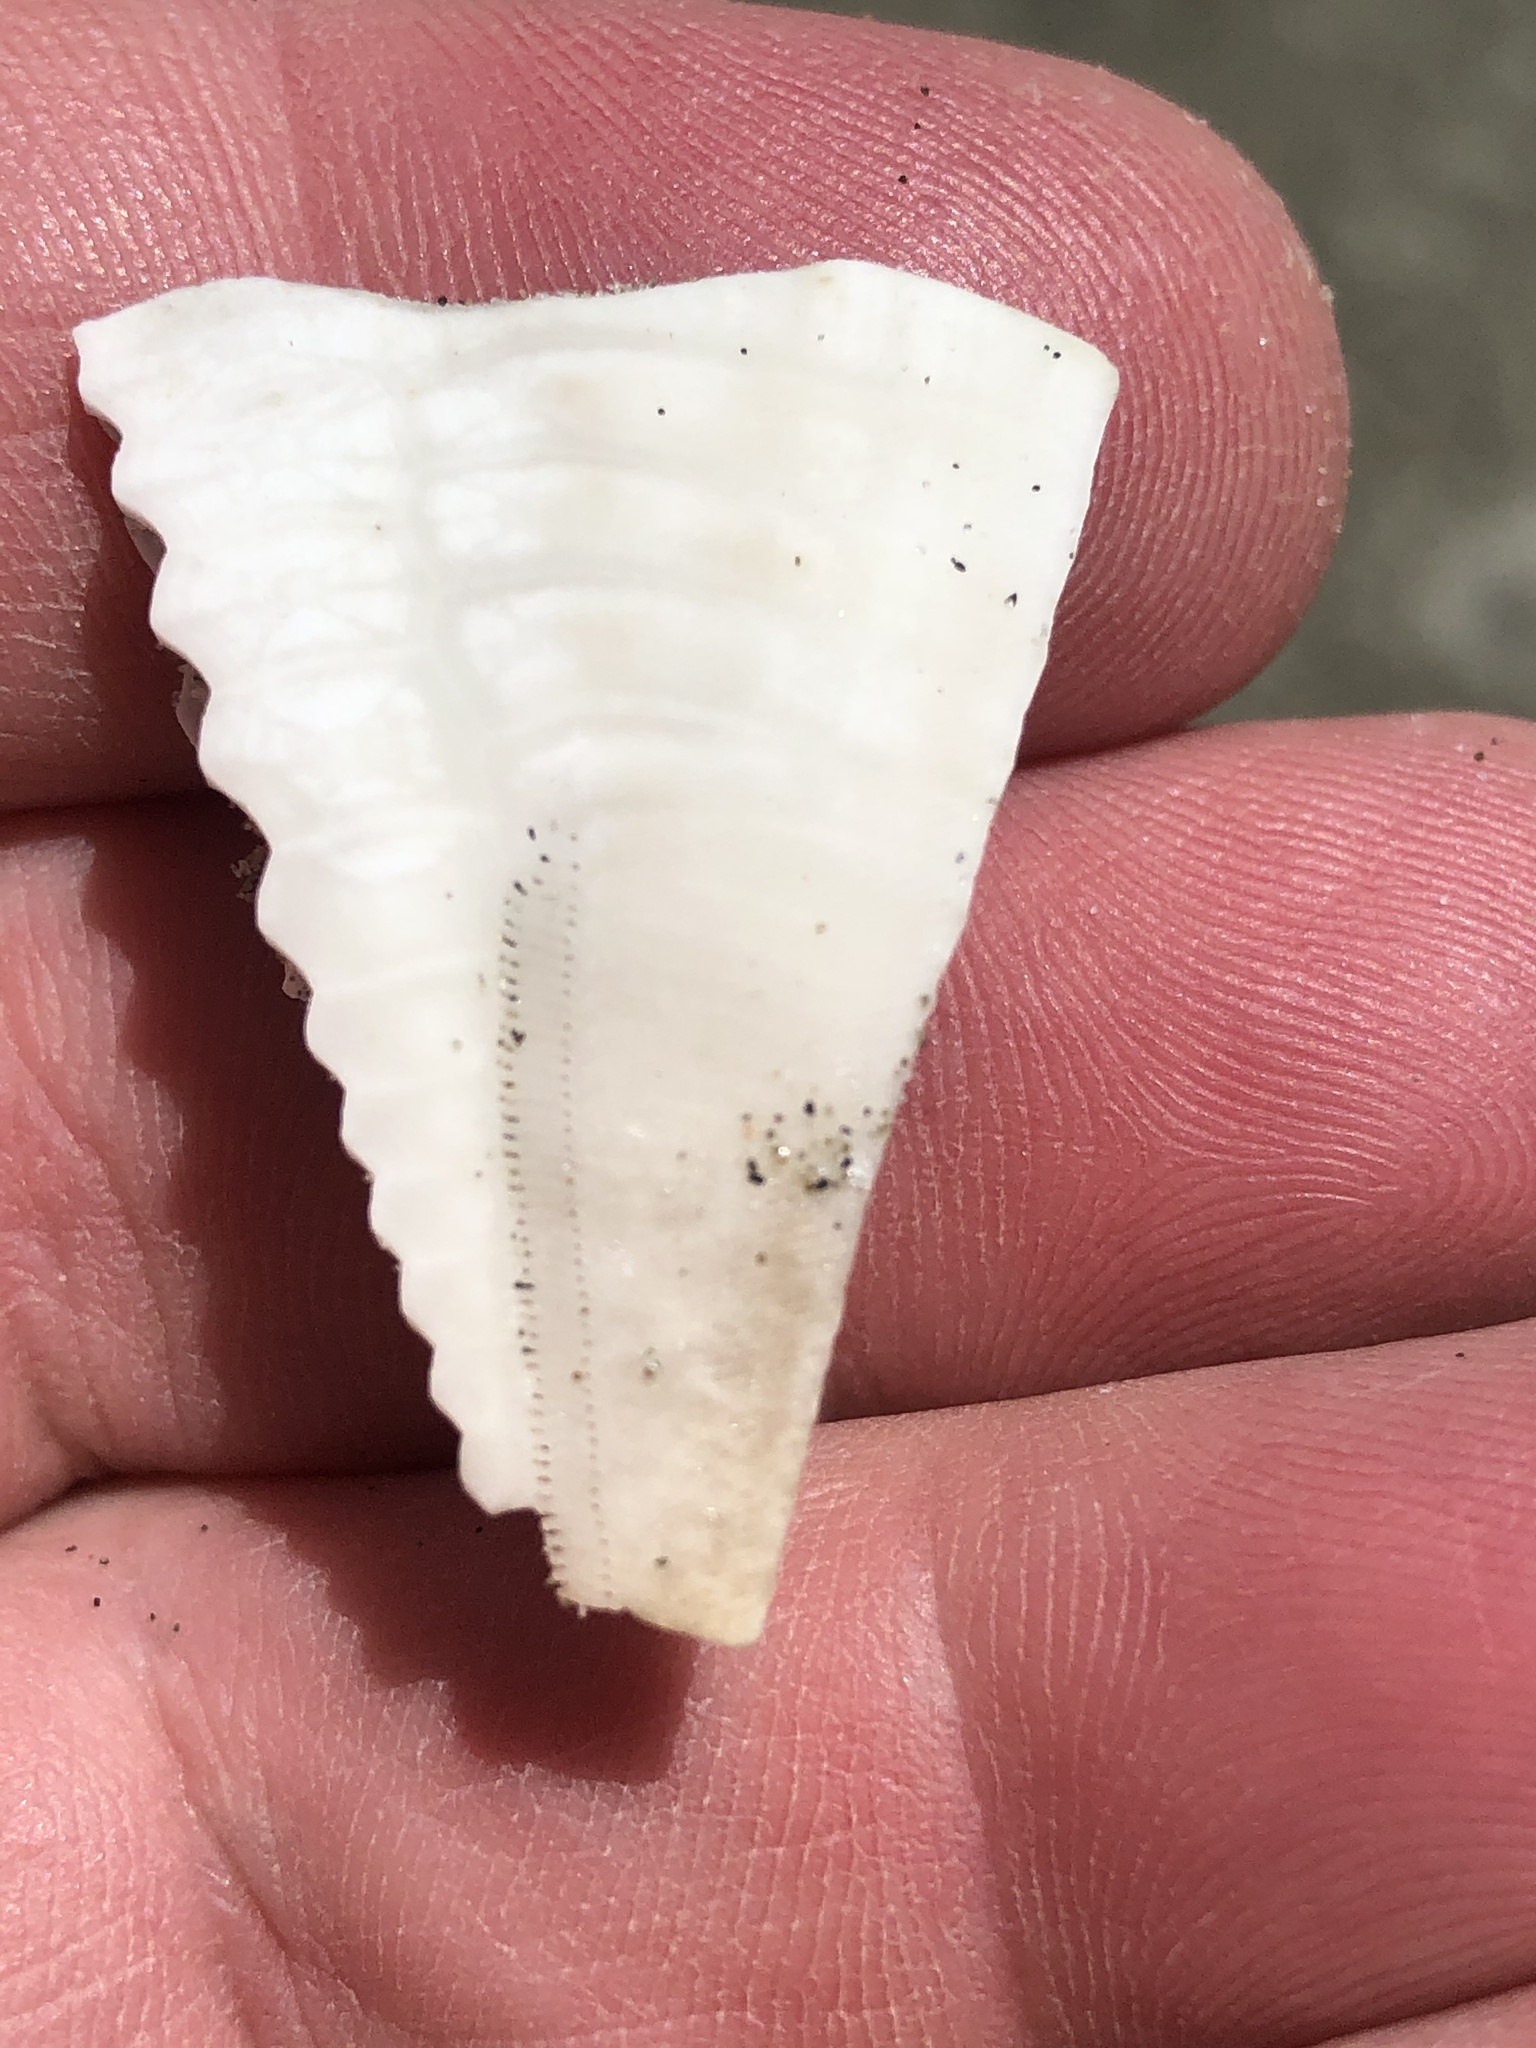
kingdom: Animalia
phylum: Echinodermata
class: Echinoidea
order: Clypeasteroida
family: Clypeasteridae
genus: Fellaster
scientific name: Fellaster zelandiae
